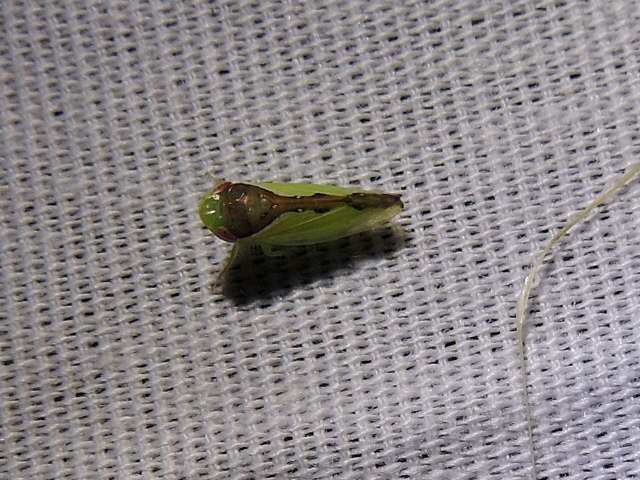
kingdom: Animalia
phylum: Arthropoda
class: Insecta
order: Hemiptera
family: Cicadellidae
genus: Omansobara ing
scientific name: Omansobara ing Omansobara palliolata
